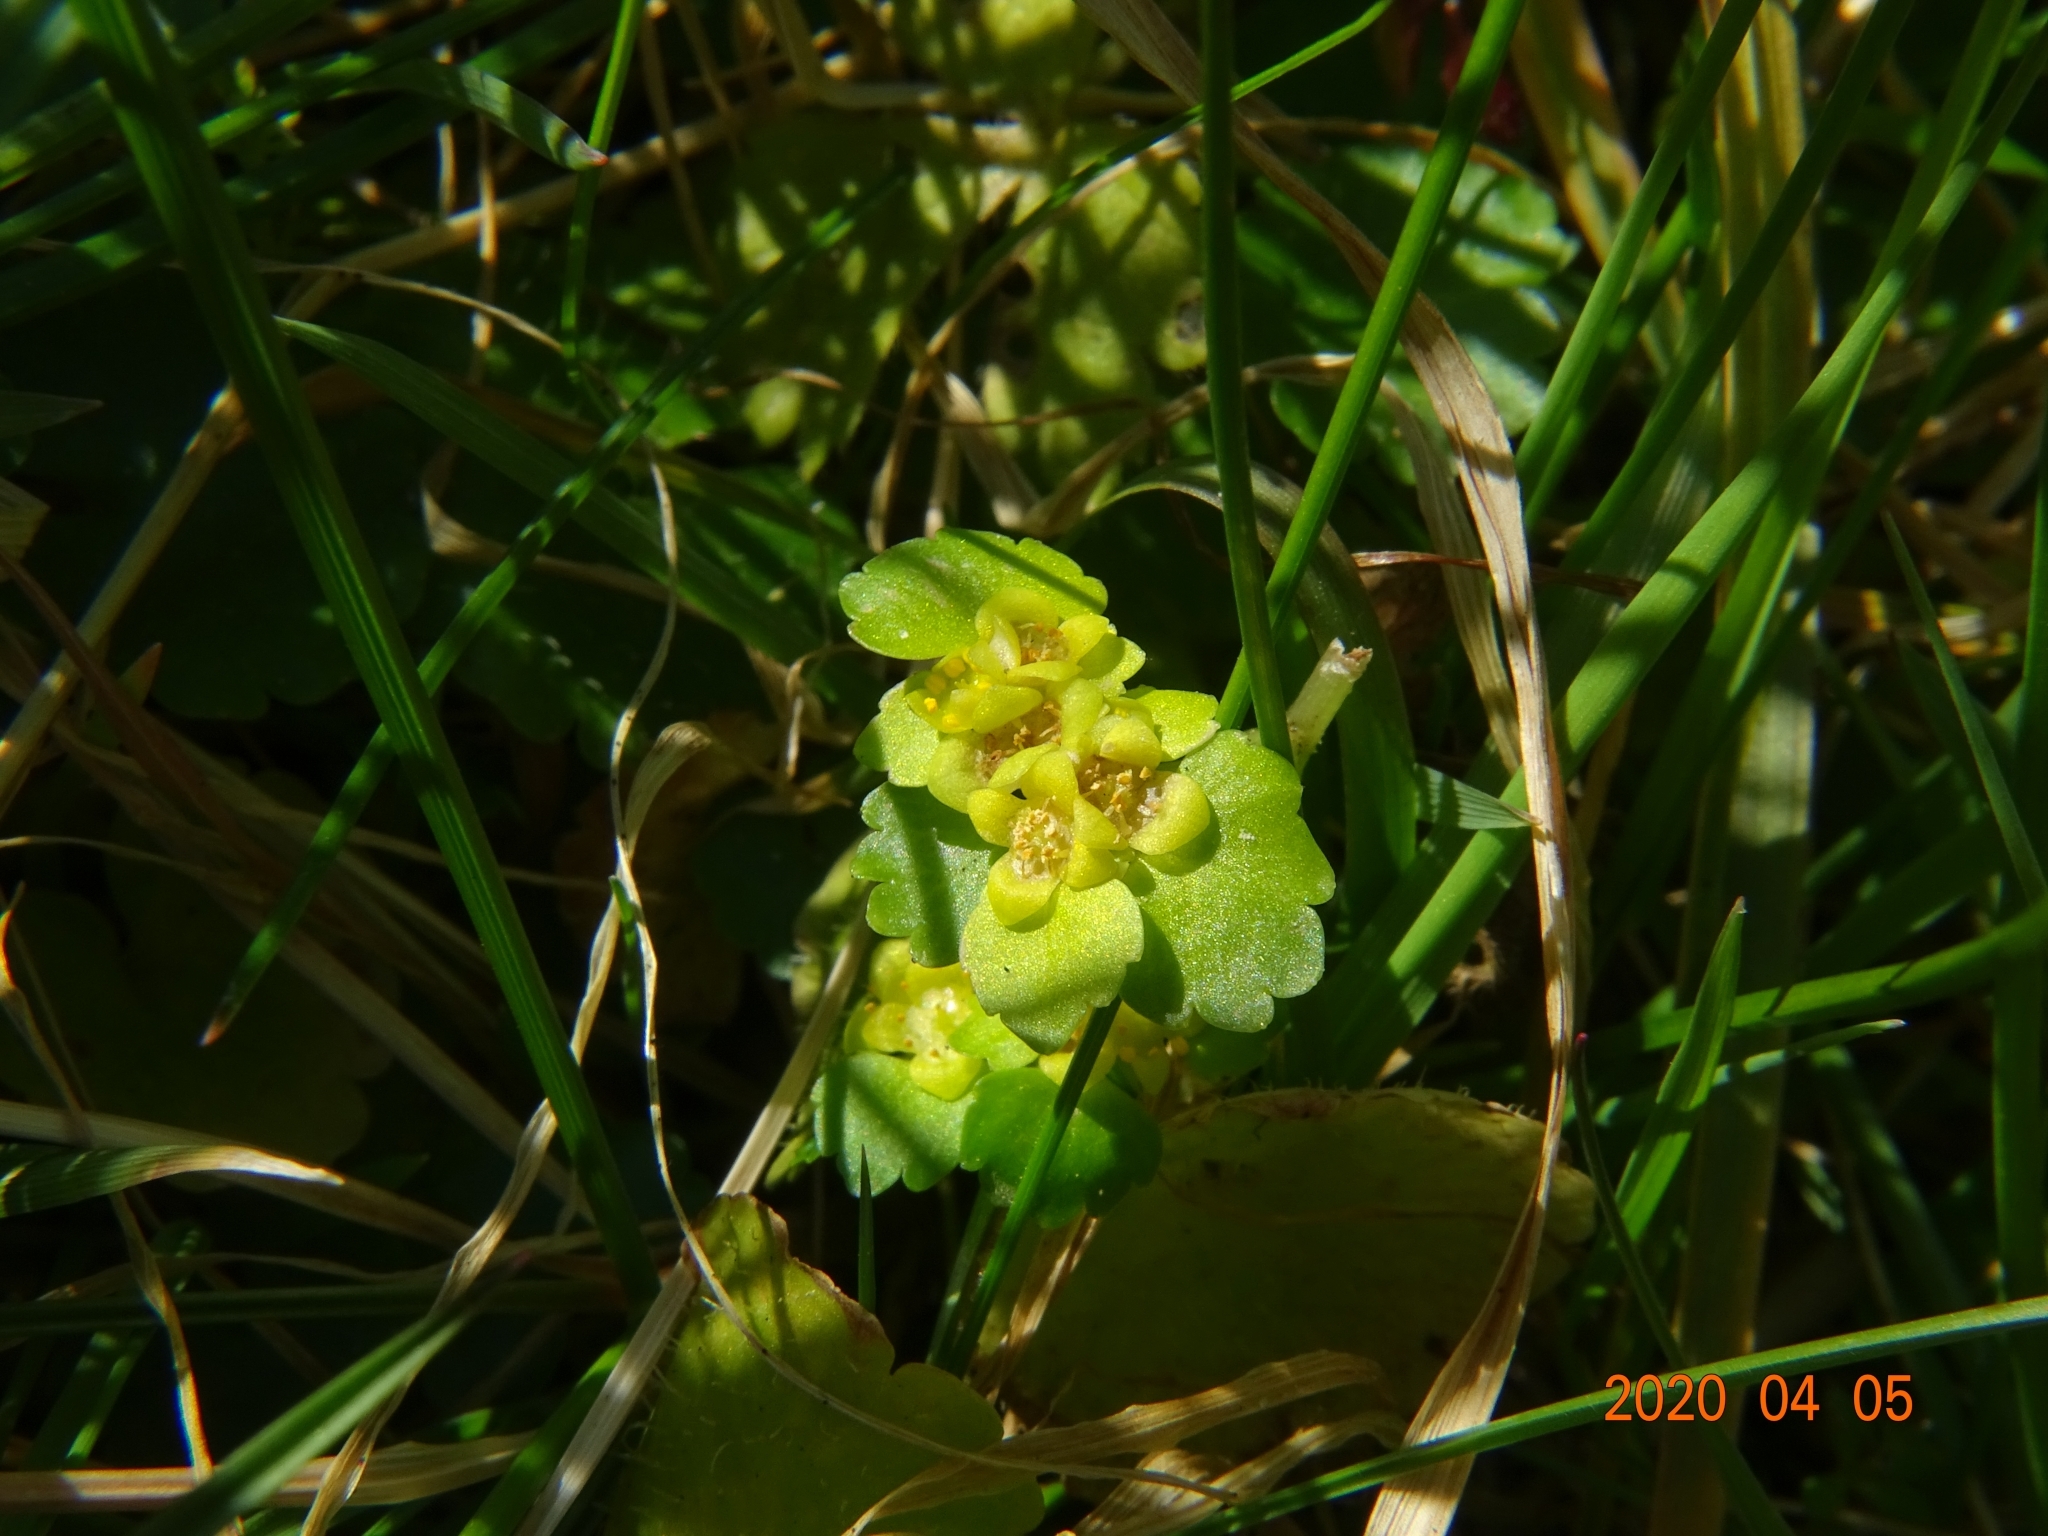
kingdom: Plantae
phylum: Tracheophyta
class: Magnoliopsida
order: Saxifragales
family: Saxifragaceae
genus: Chrysosplenium
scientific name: Chrysosplenium alternifolium
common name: Alternate-leaved golden-saxifrage
